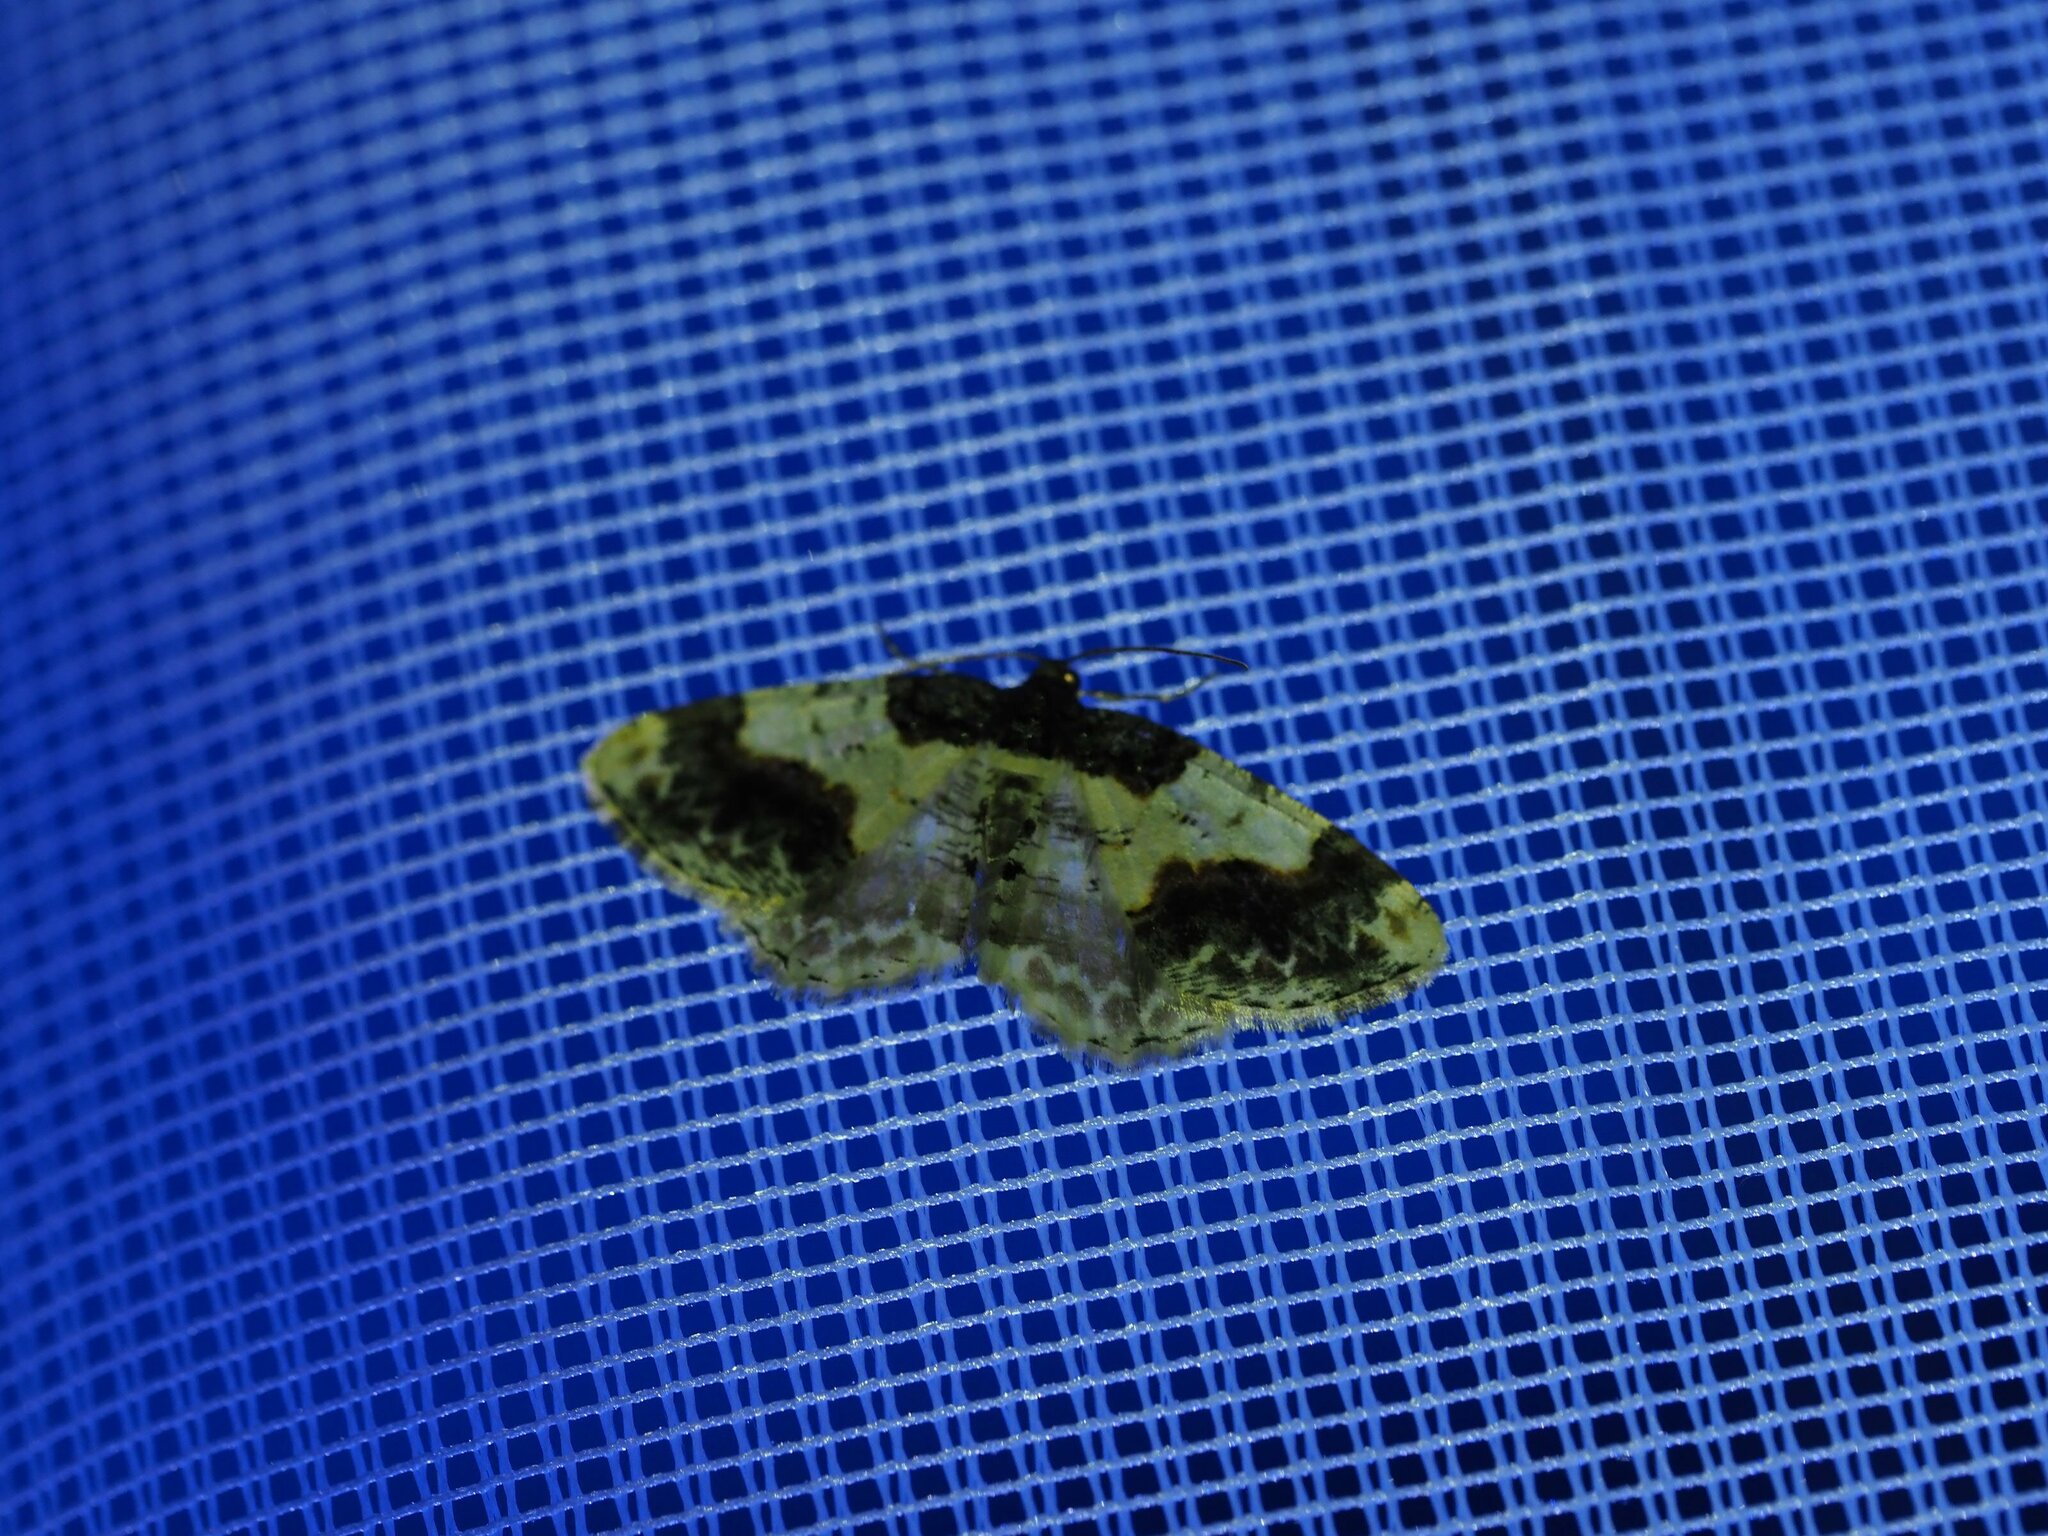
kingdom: Animalia
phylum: Arthropoda
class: Insecta
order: Lepidoptera
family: Geometridae
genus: Ligdia
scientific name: Ligdia adustata
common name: Scorched carpet
